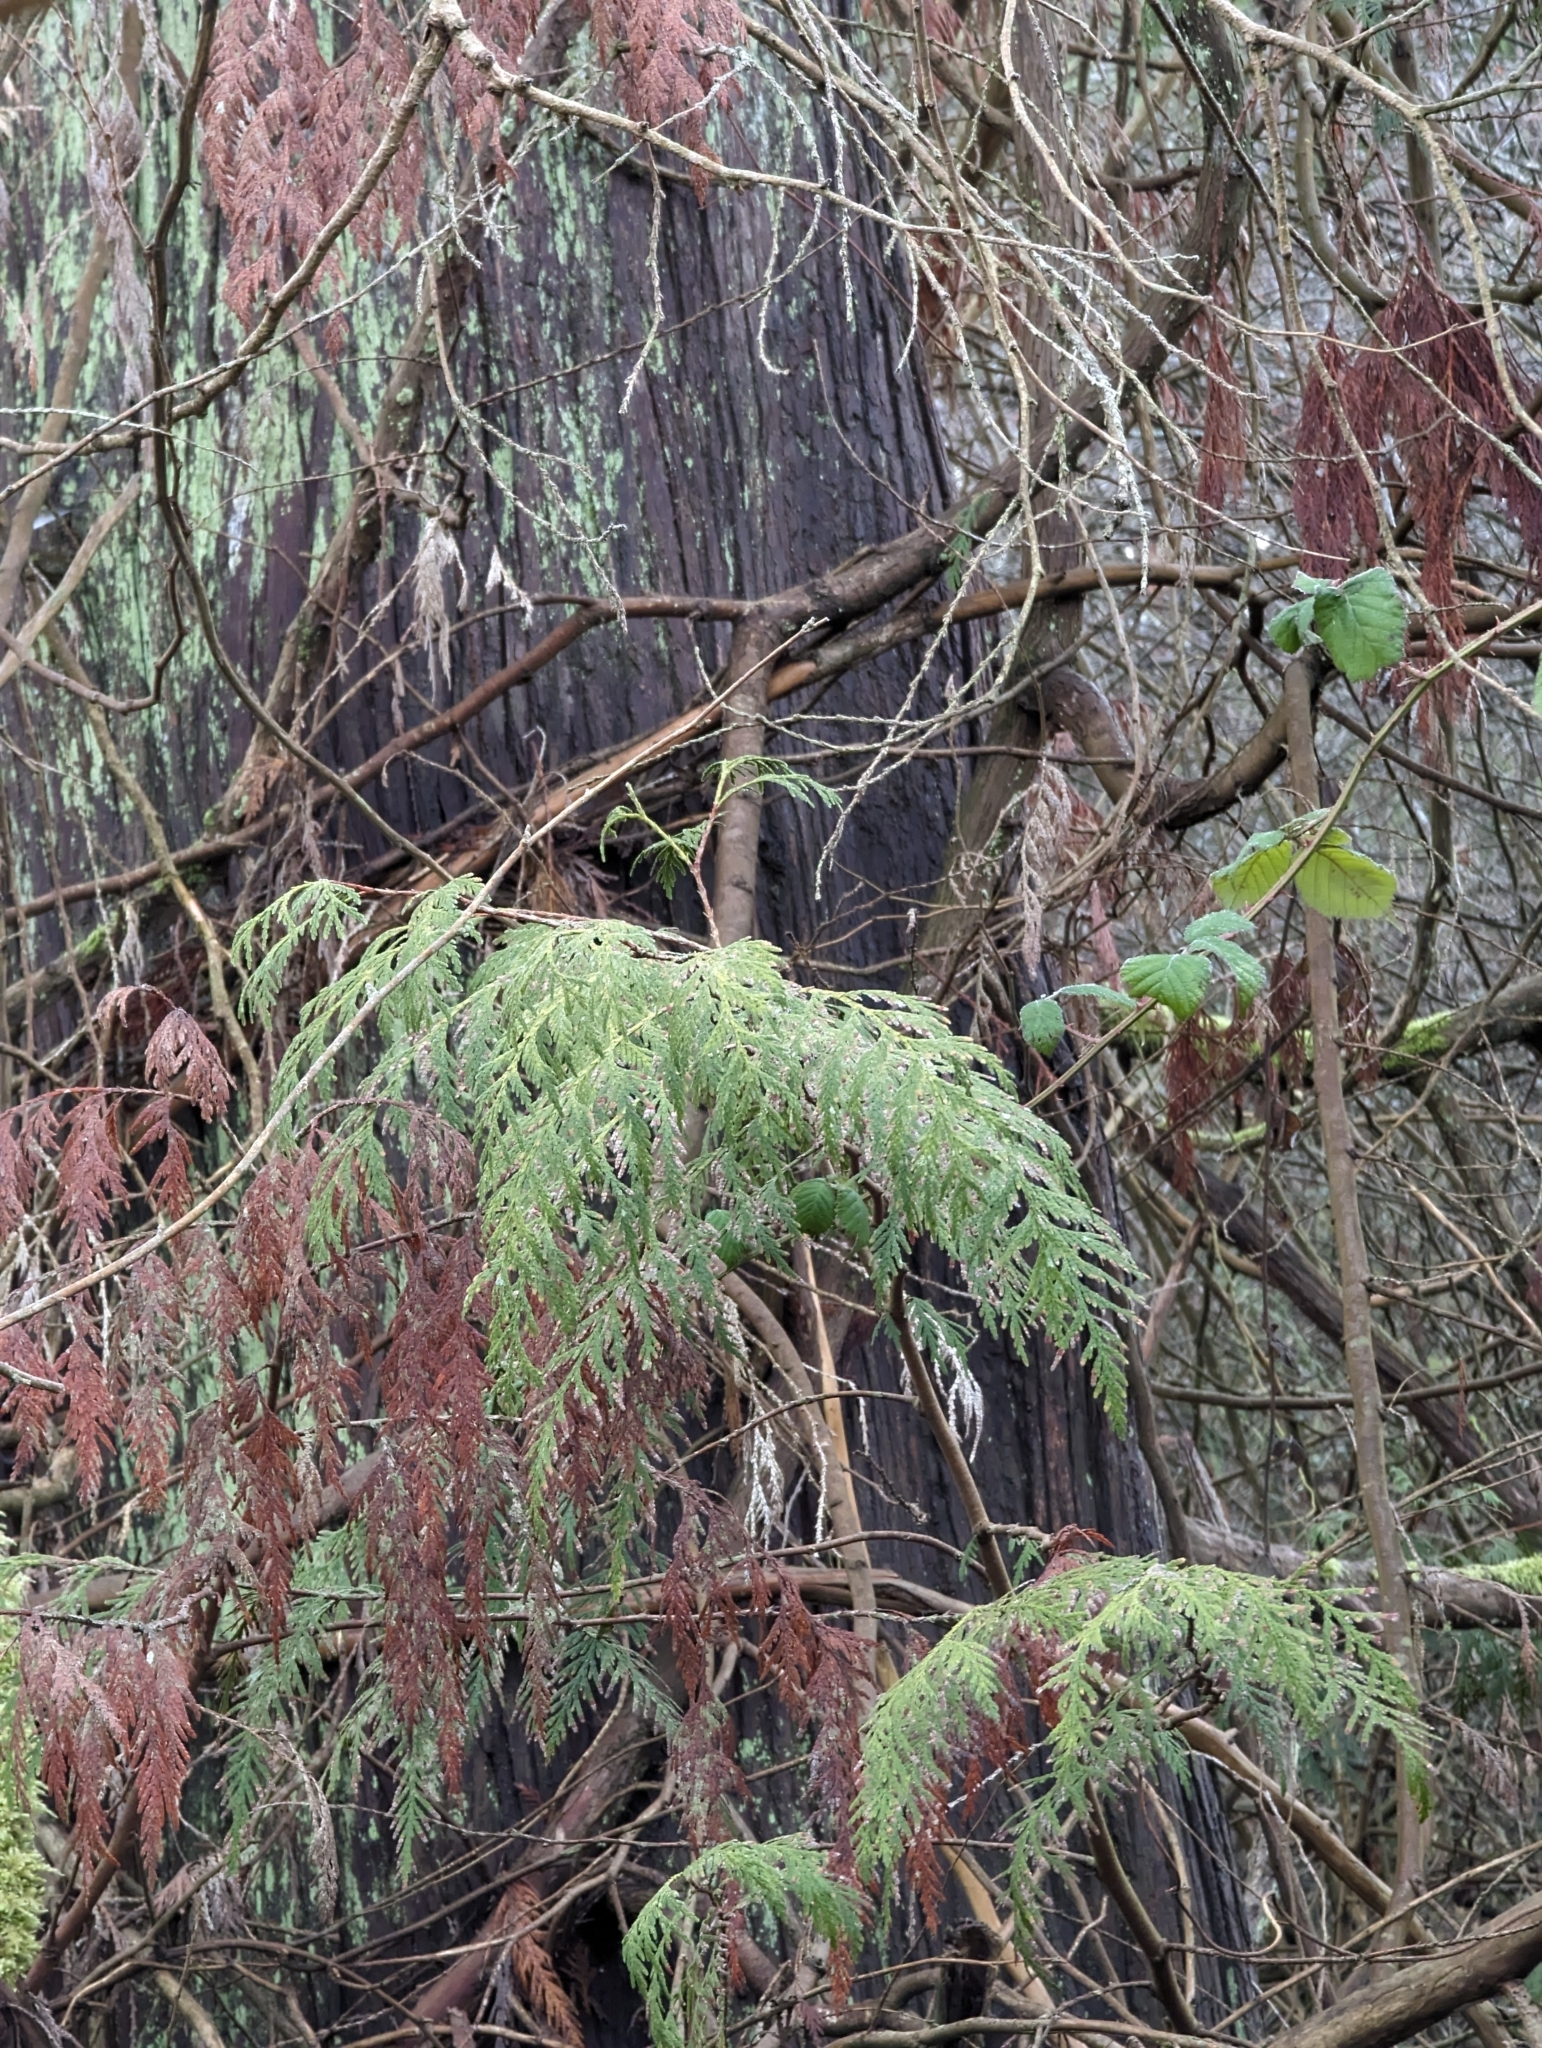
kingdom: Plantae
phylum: Tracheophyta
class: Pinopsida
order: Pinales
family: Cupressaceae
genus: Thuja
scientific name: Thuja plicata
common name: Western red-cedar
